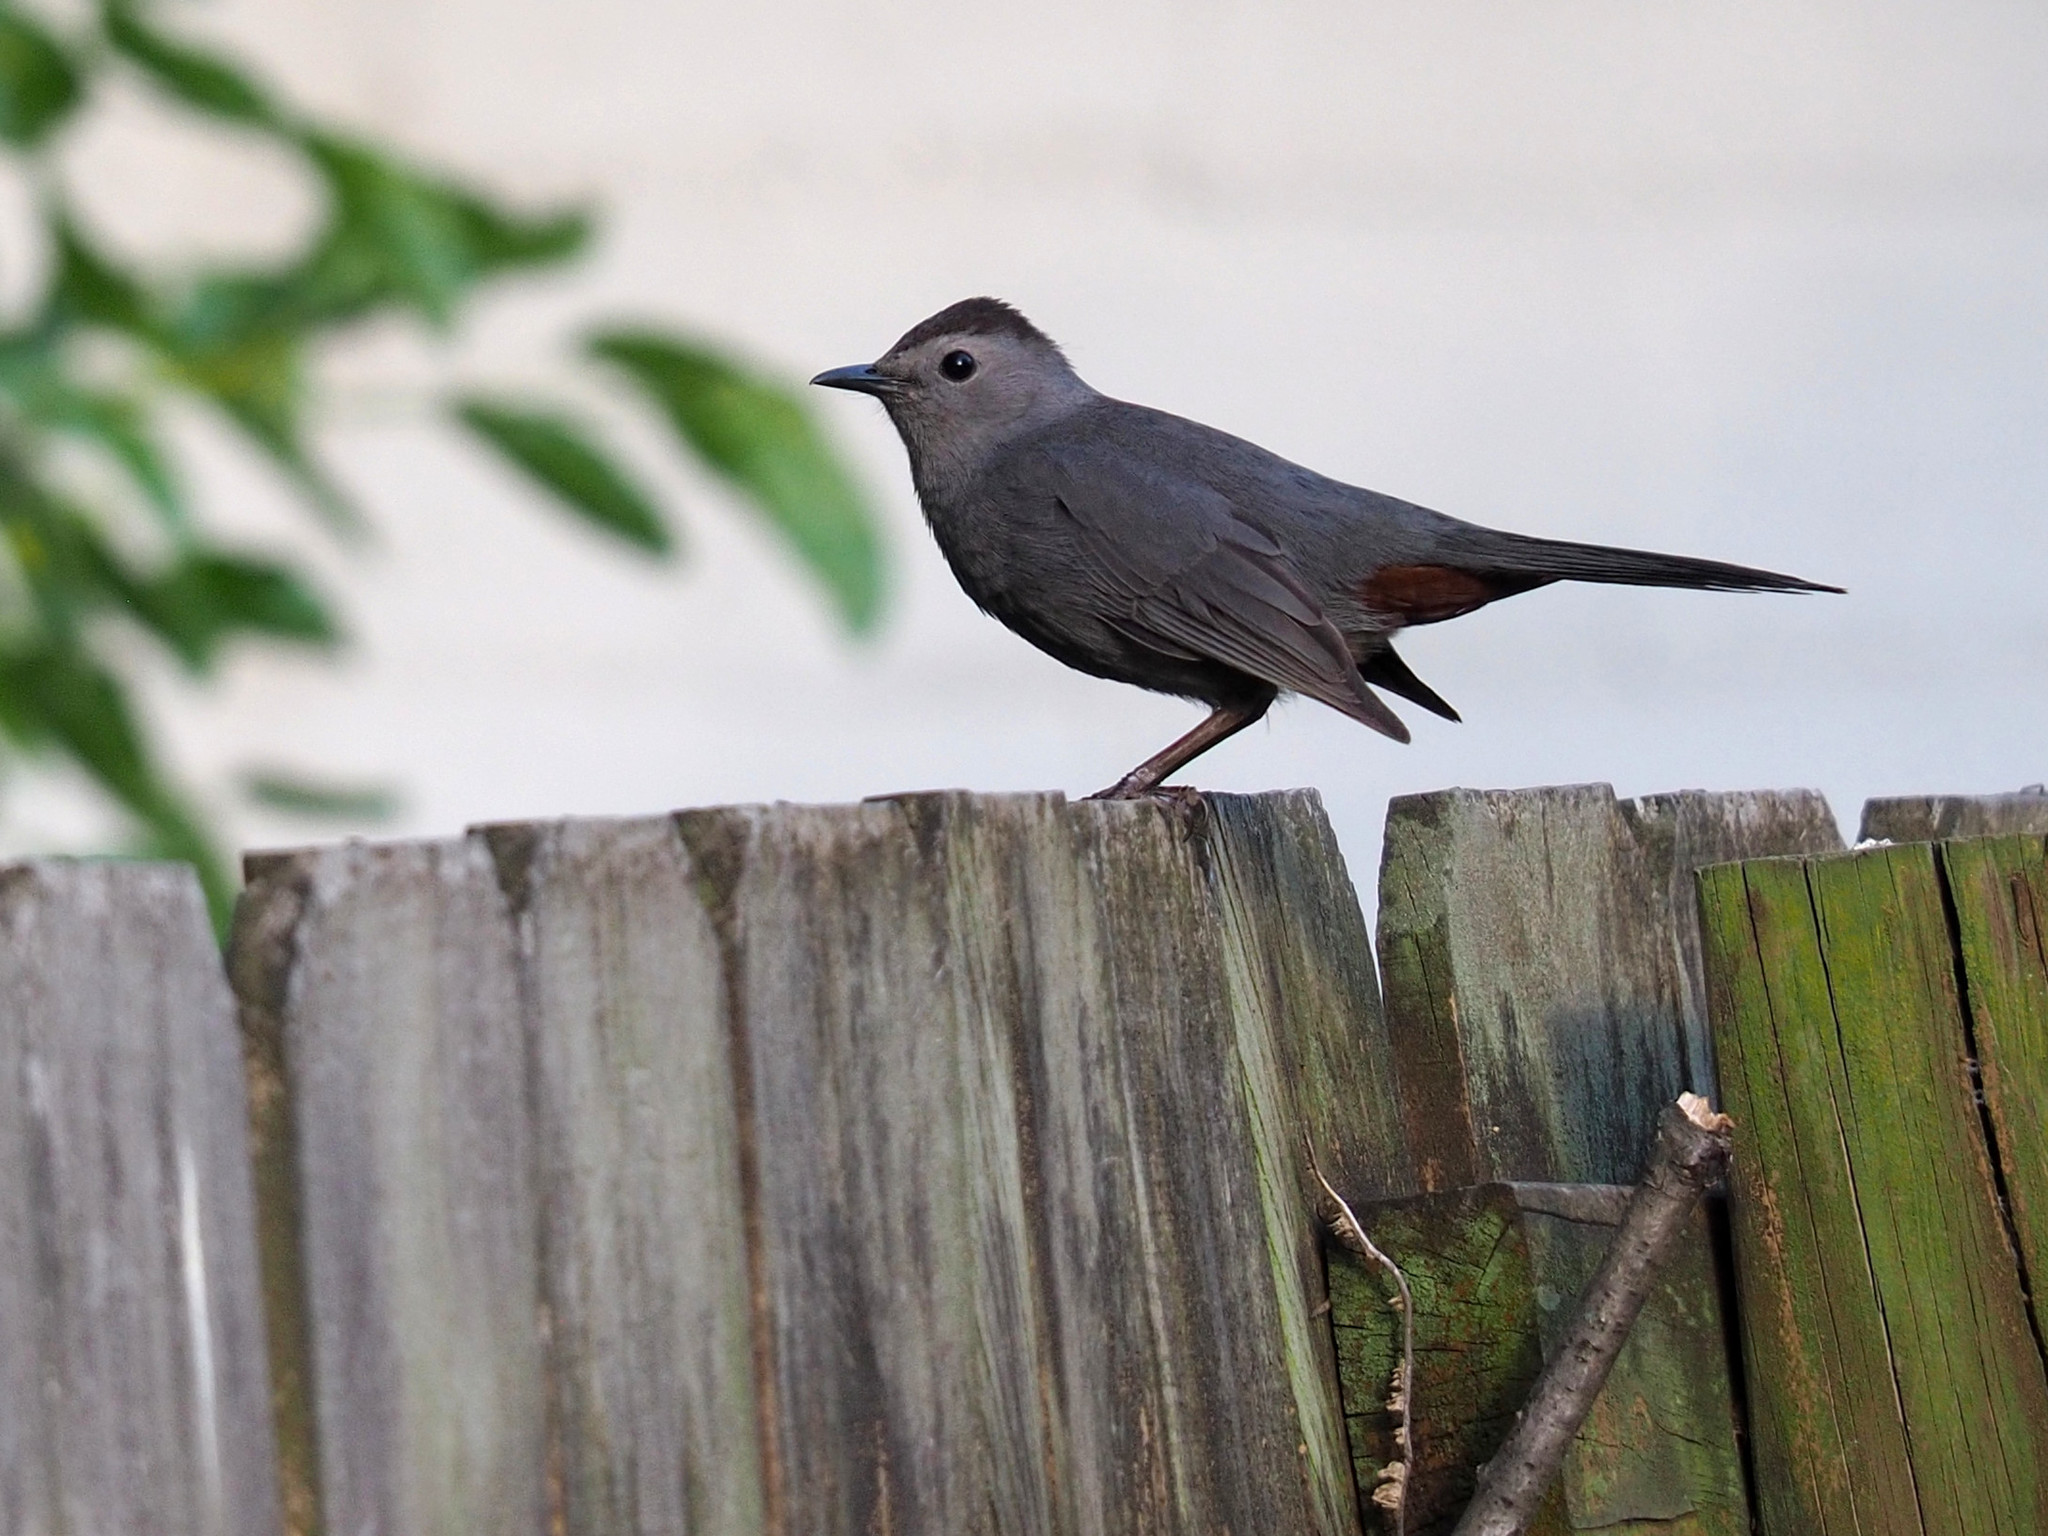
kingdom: Animalia
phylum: Chordata
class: Aves
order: Passeriformes
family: Mimidae
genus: Dumetella
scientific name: Dumetella carolinensis
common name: Gray catbird
